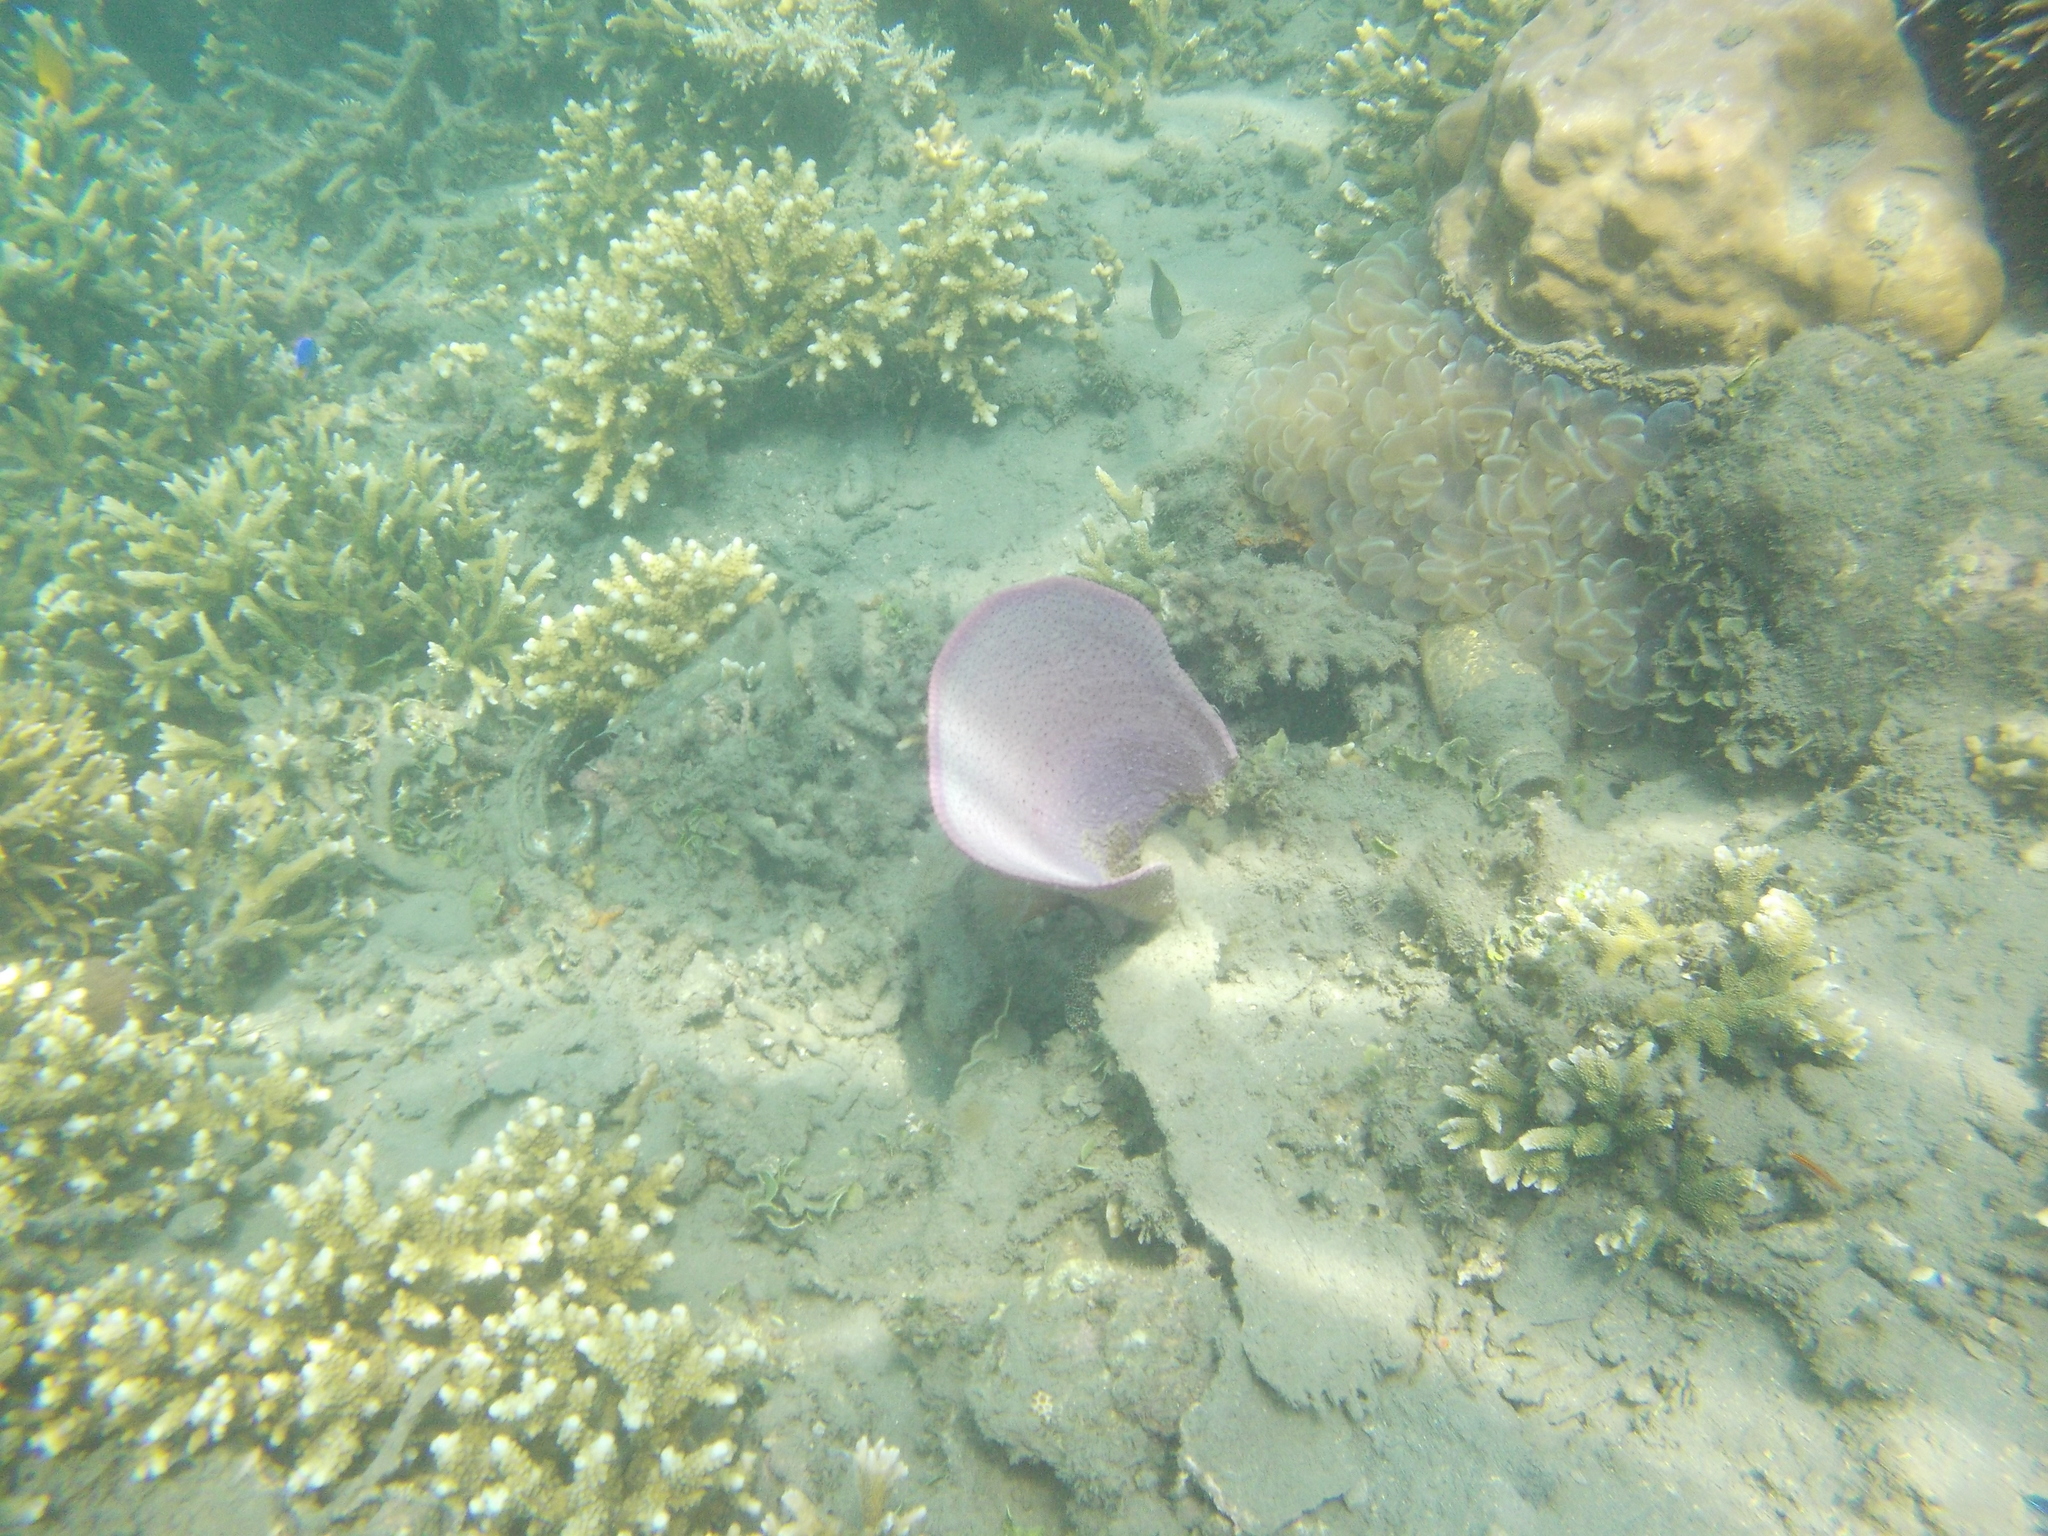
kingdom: Animalia
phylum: Porifera
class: Demospongiae
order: Verongiida
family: Ianthellidae
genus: Ianthella
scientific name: Ianthella basta
